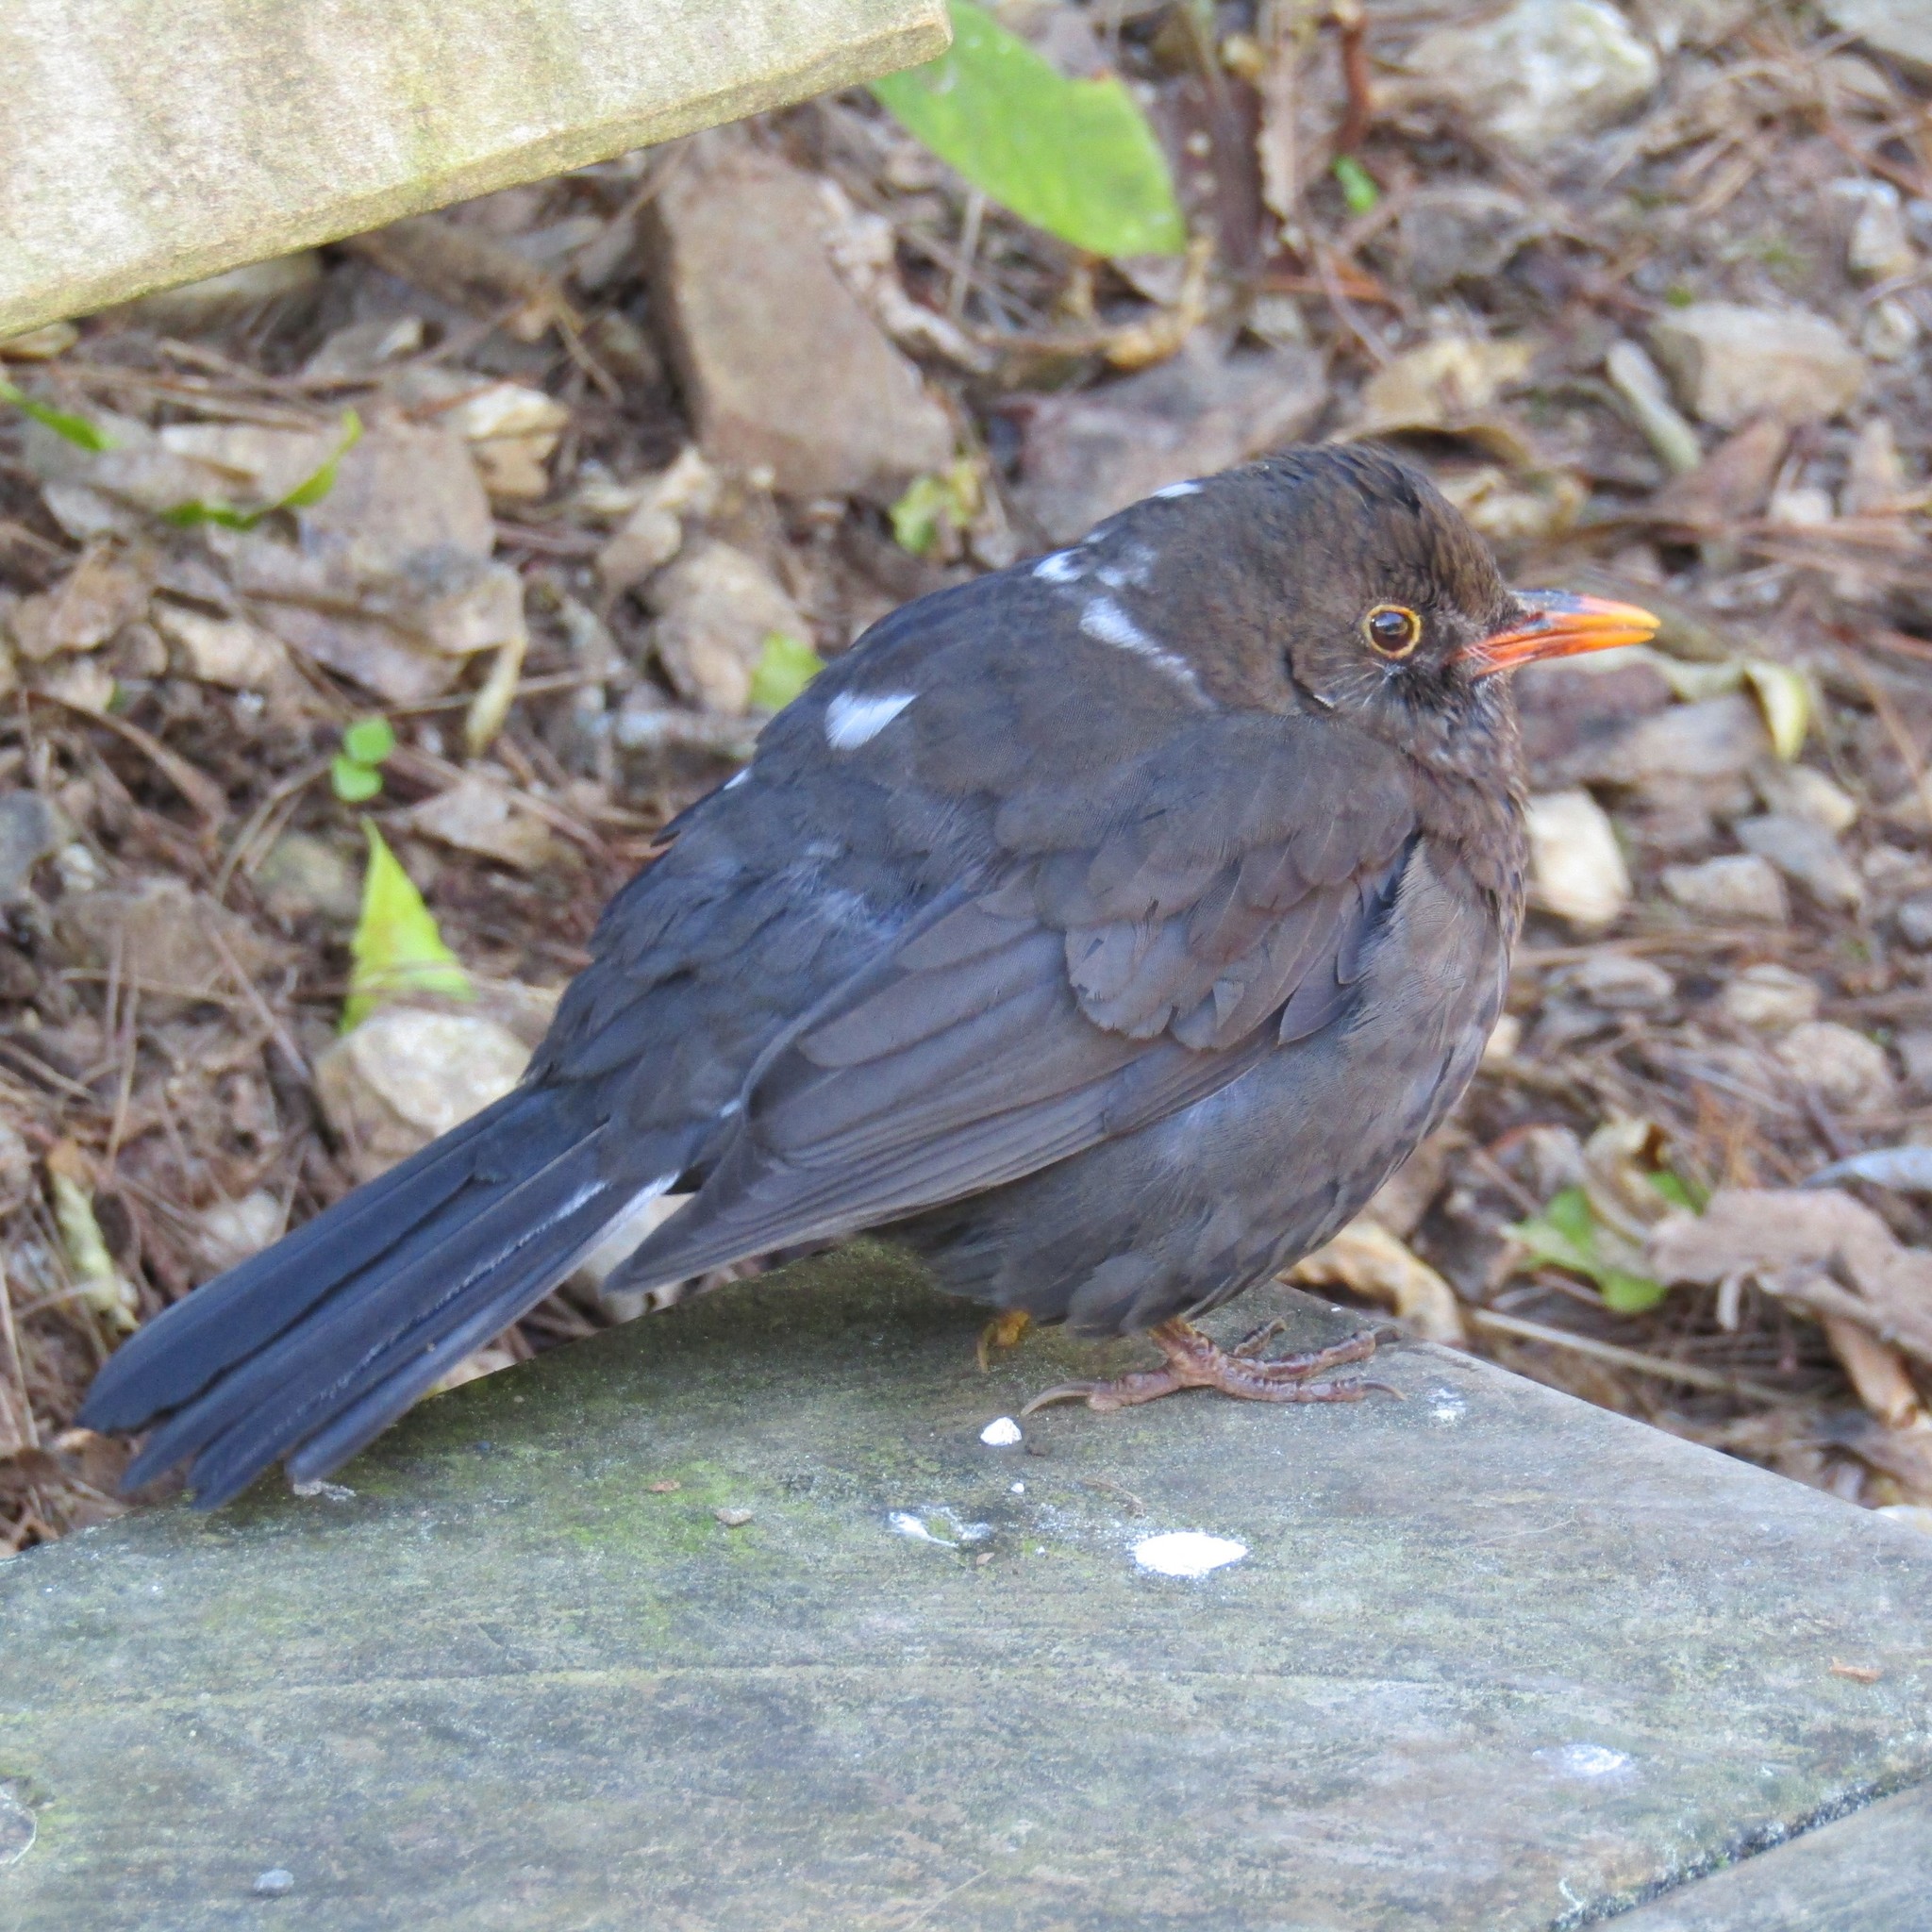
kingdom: Animalia
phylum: Chordata
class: Aves
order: Passeriformes
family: Turdidae
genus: Turdus
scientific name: Turdus merula
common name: Common blackbird
